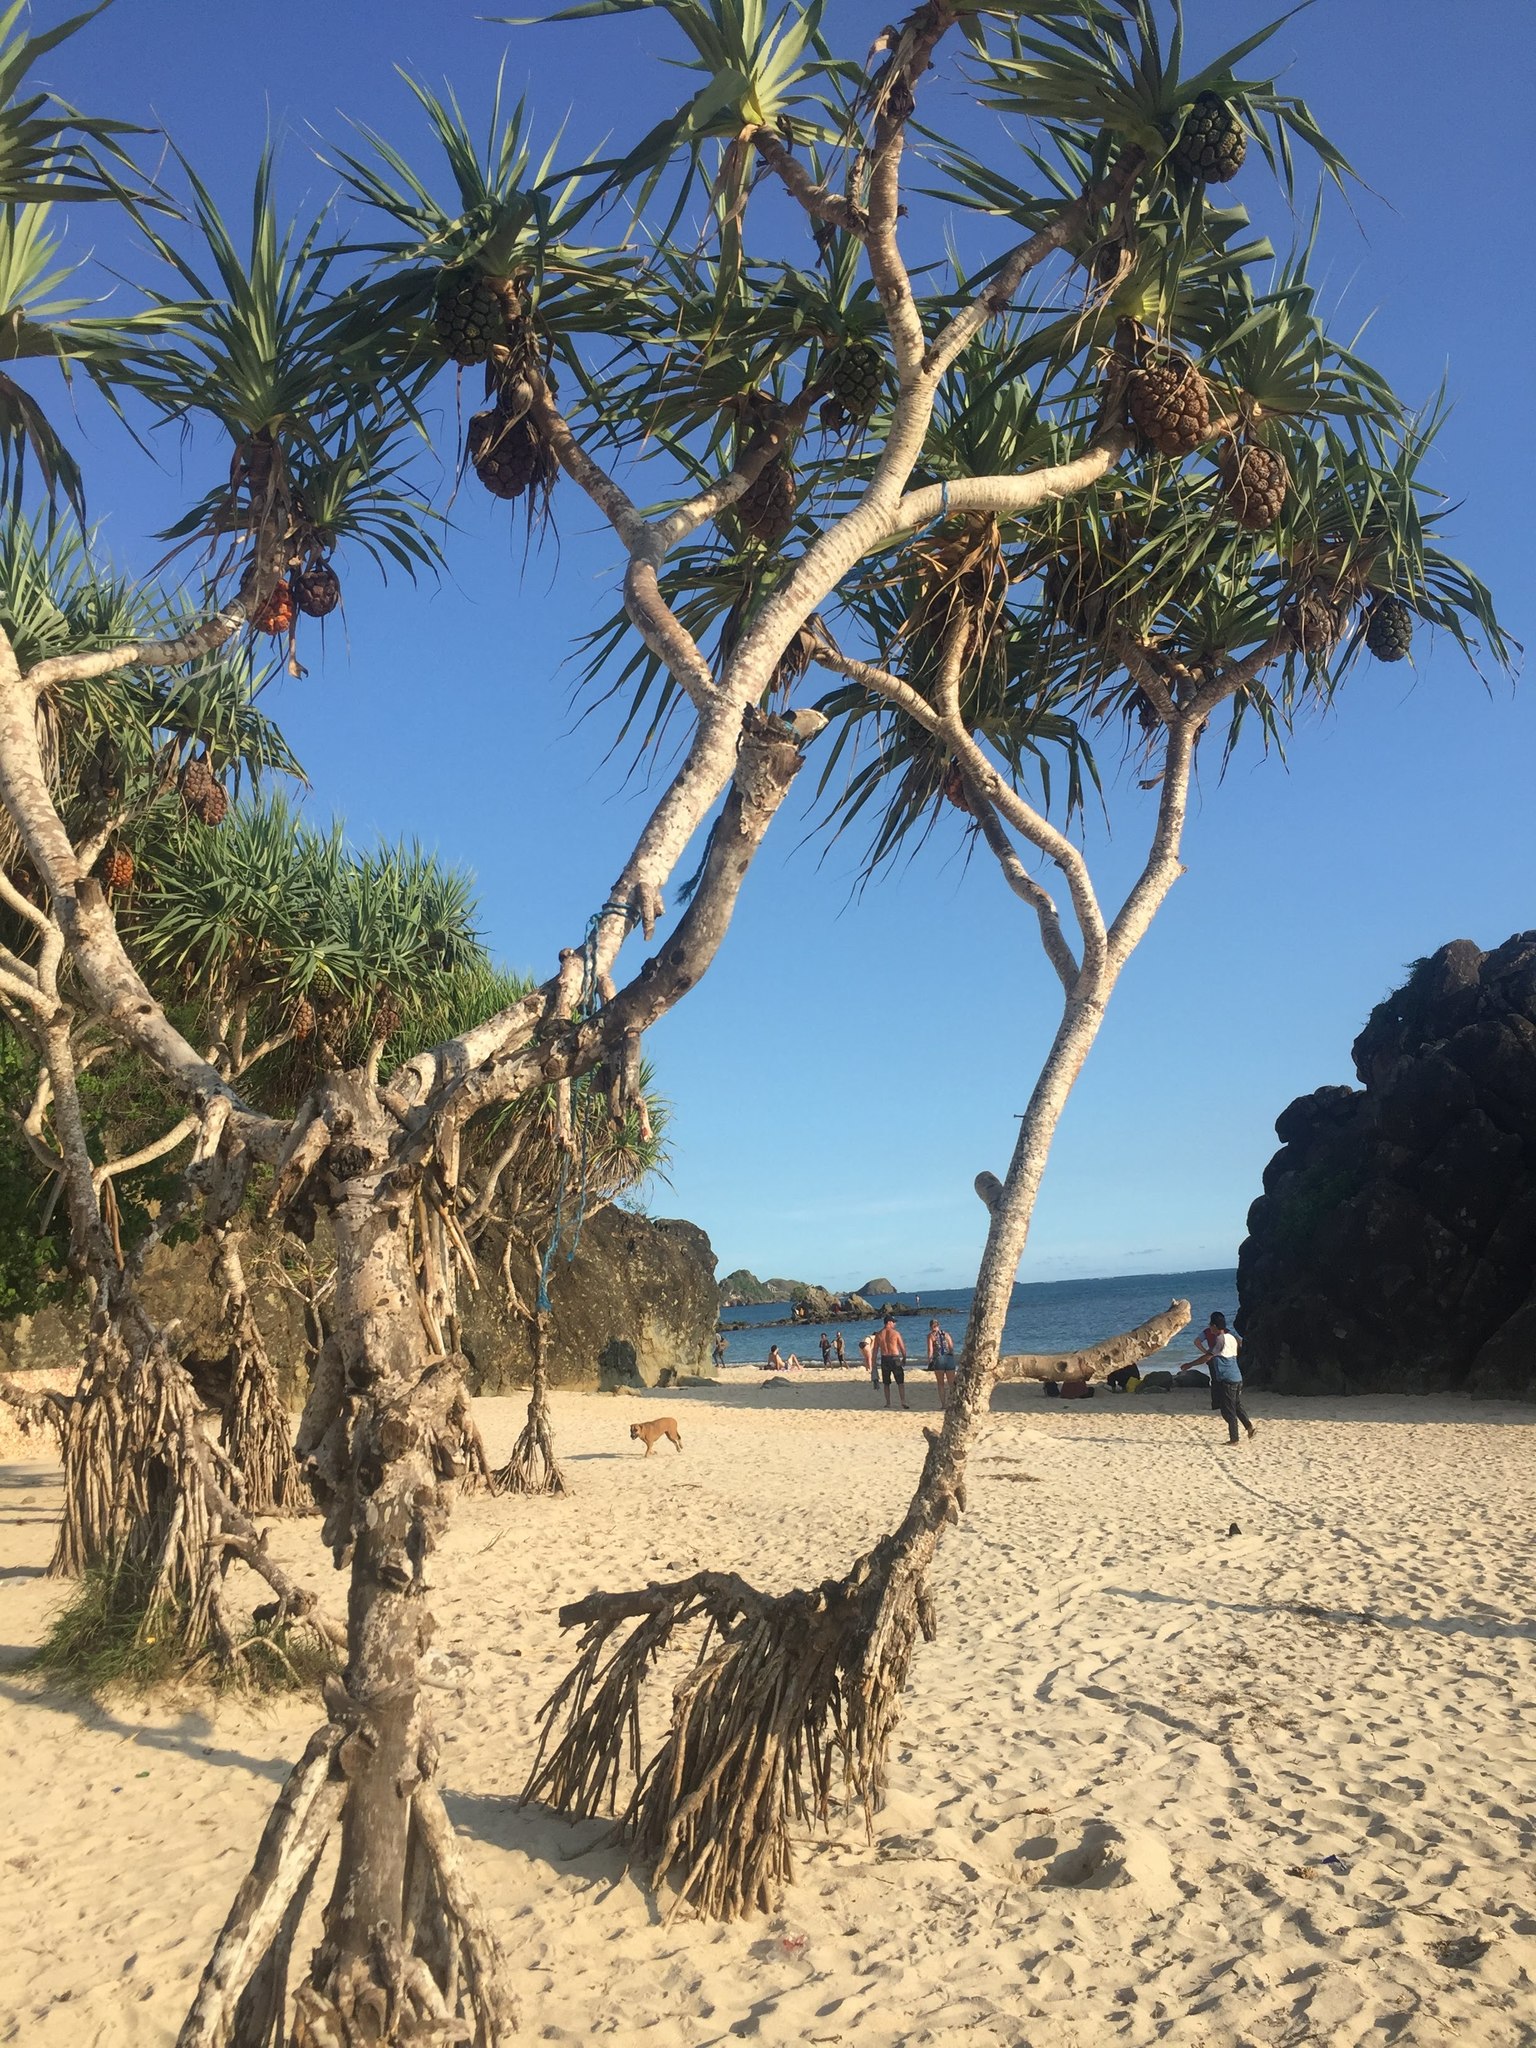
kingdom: Plantae
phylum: Tracheophyta
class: Liliopsida
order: Pandanales
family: Pandanaceae
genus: Pandanus
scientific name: Pandanus tectorius
